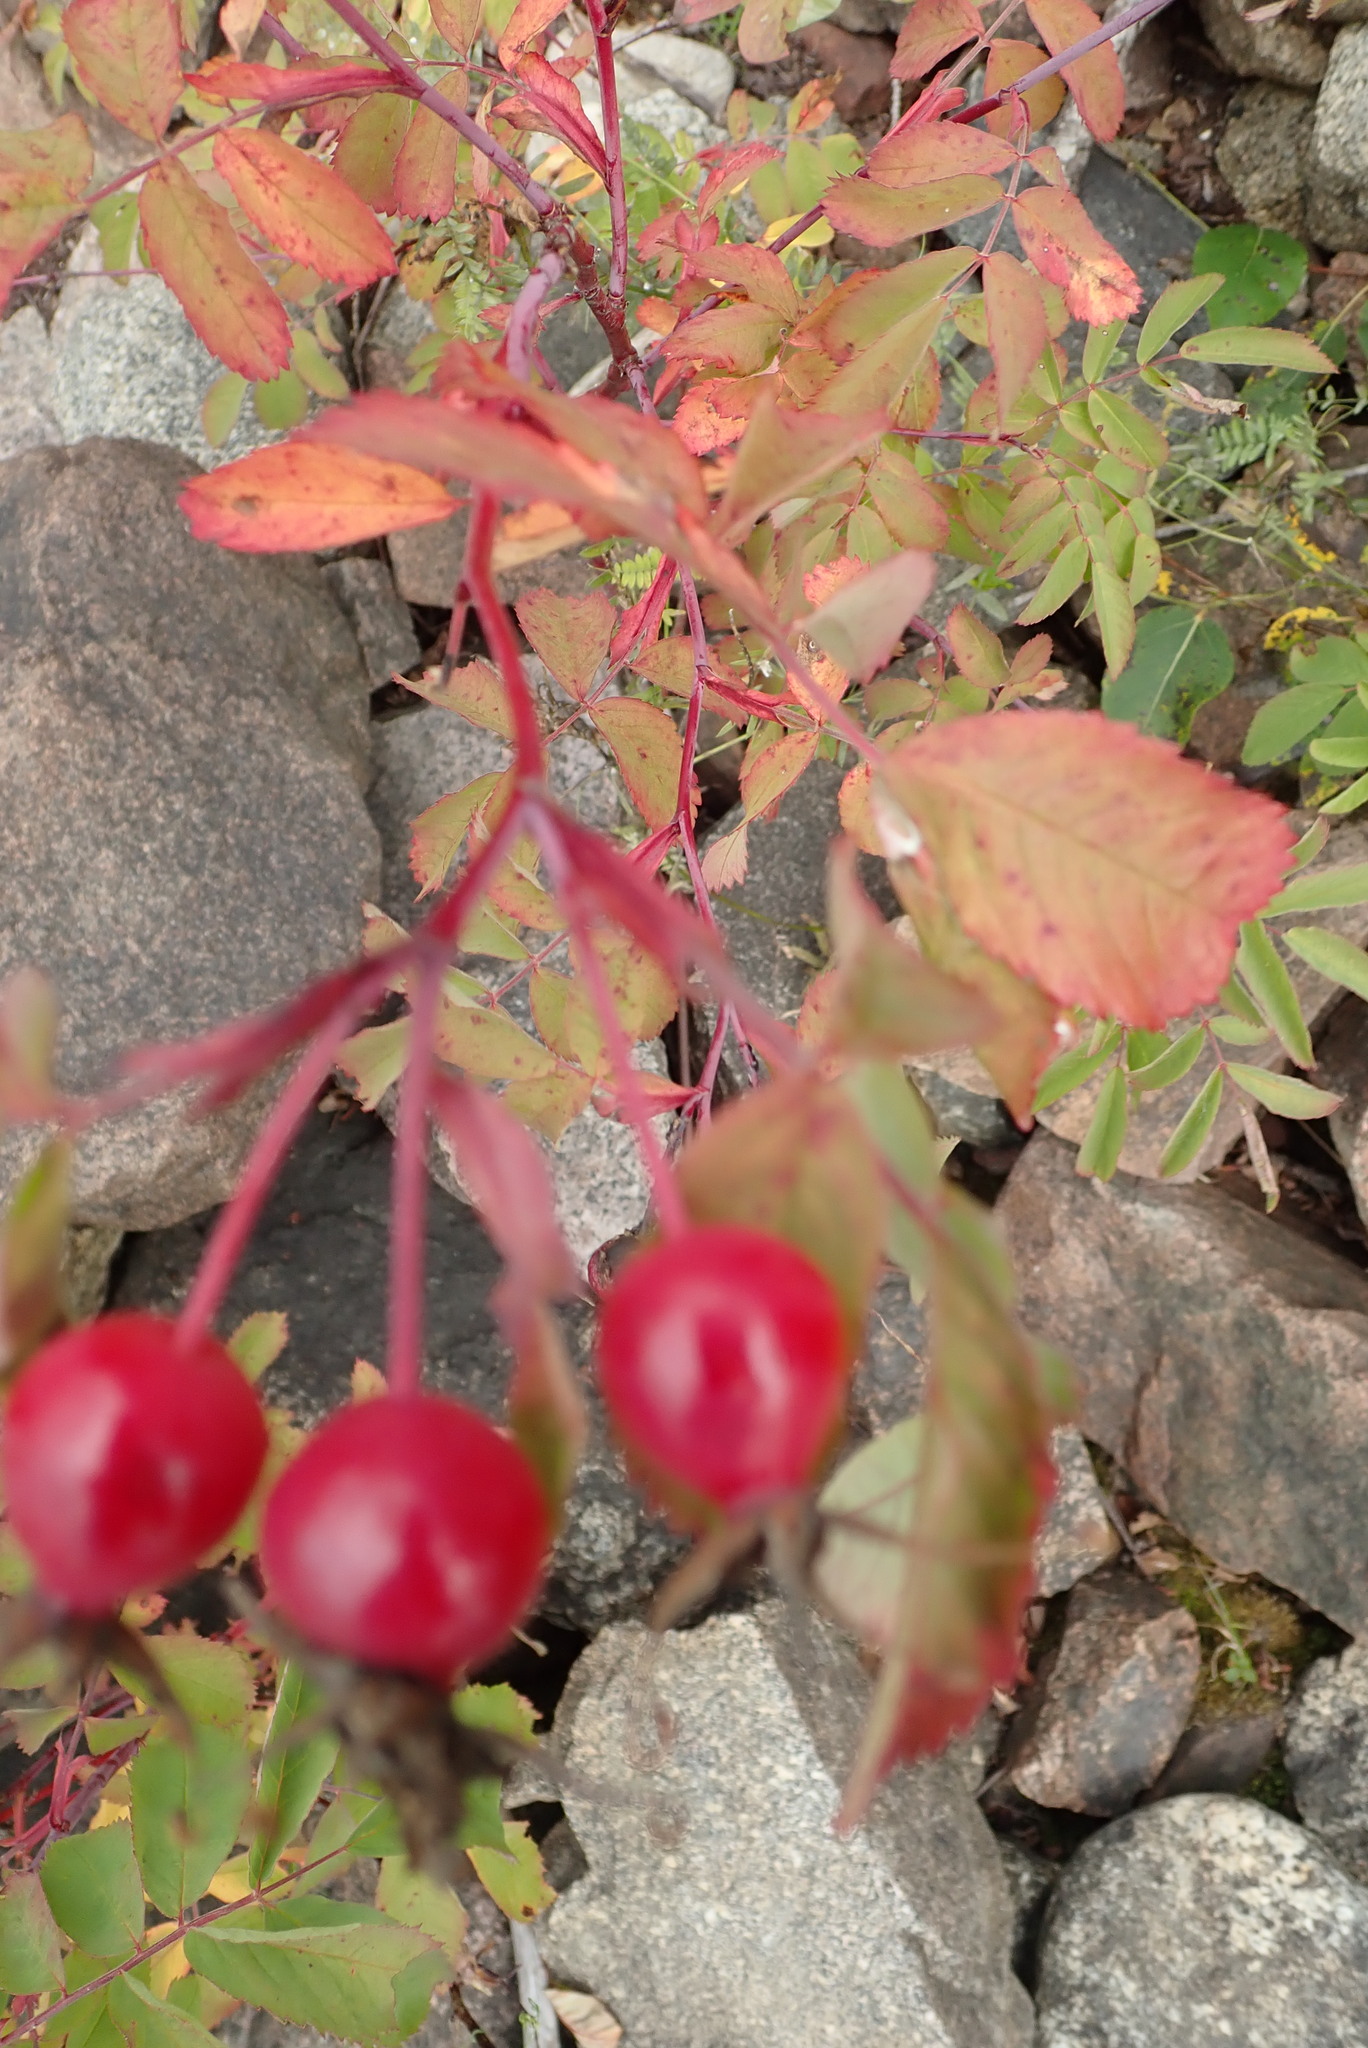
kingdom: Plantae
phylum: Tracheophyta
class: Magnoliopsida
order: Rosales
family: Rosaceae
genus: Rosa
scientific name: Rosa blanda
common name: Smooth rose
